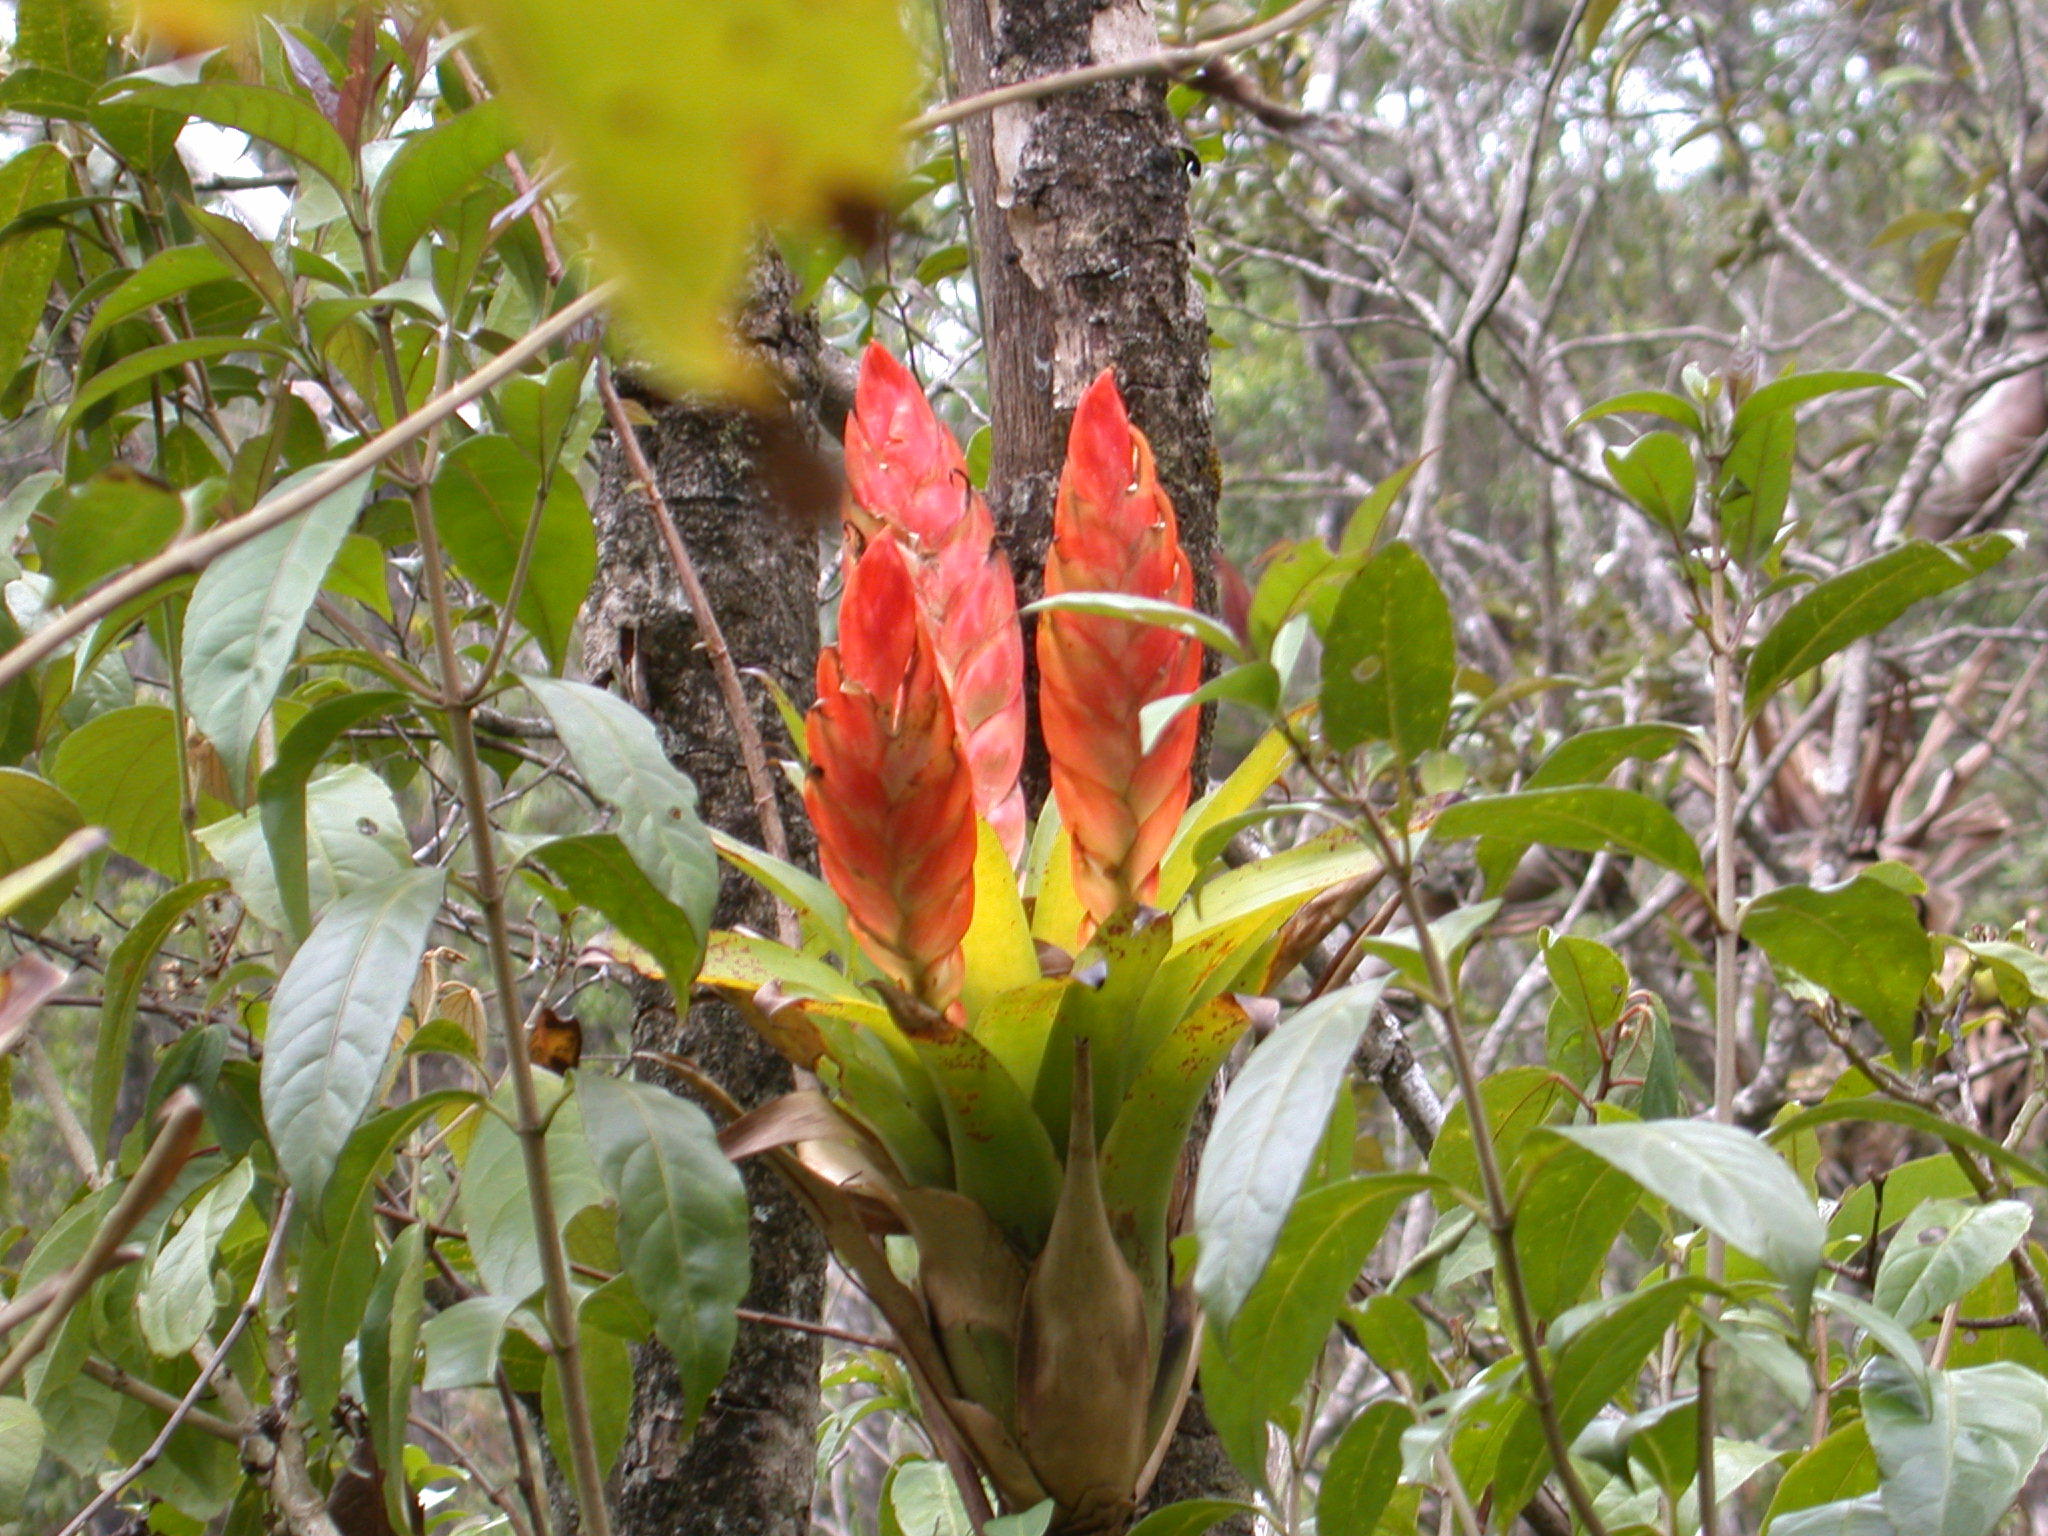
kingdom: Plantae
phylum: Tracheophyta
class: Liliopsida
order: Poales
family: Bromeliaceae
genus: Tillandsia
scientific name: Tillandsia multicaulis
